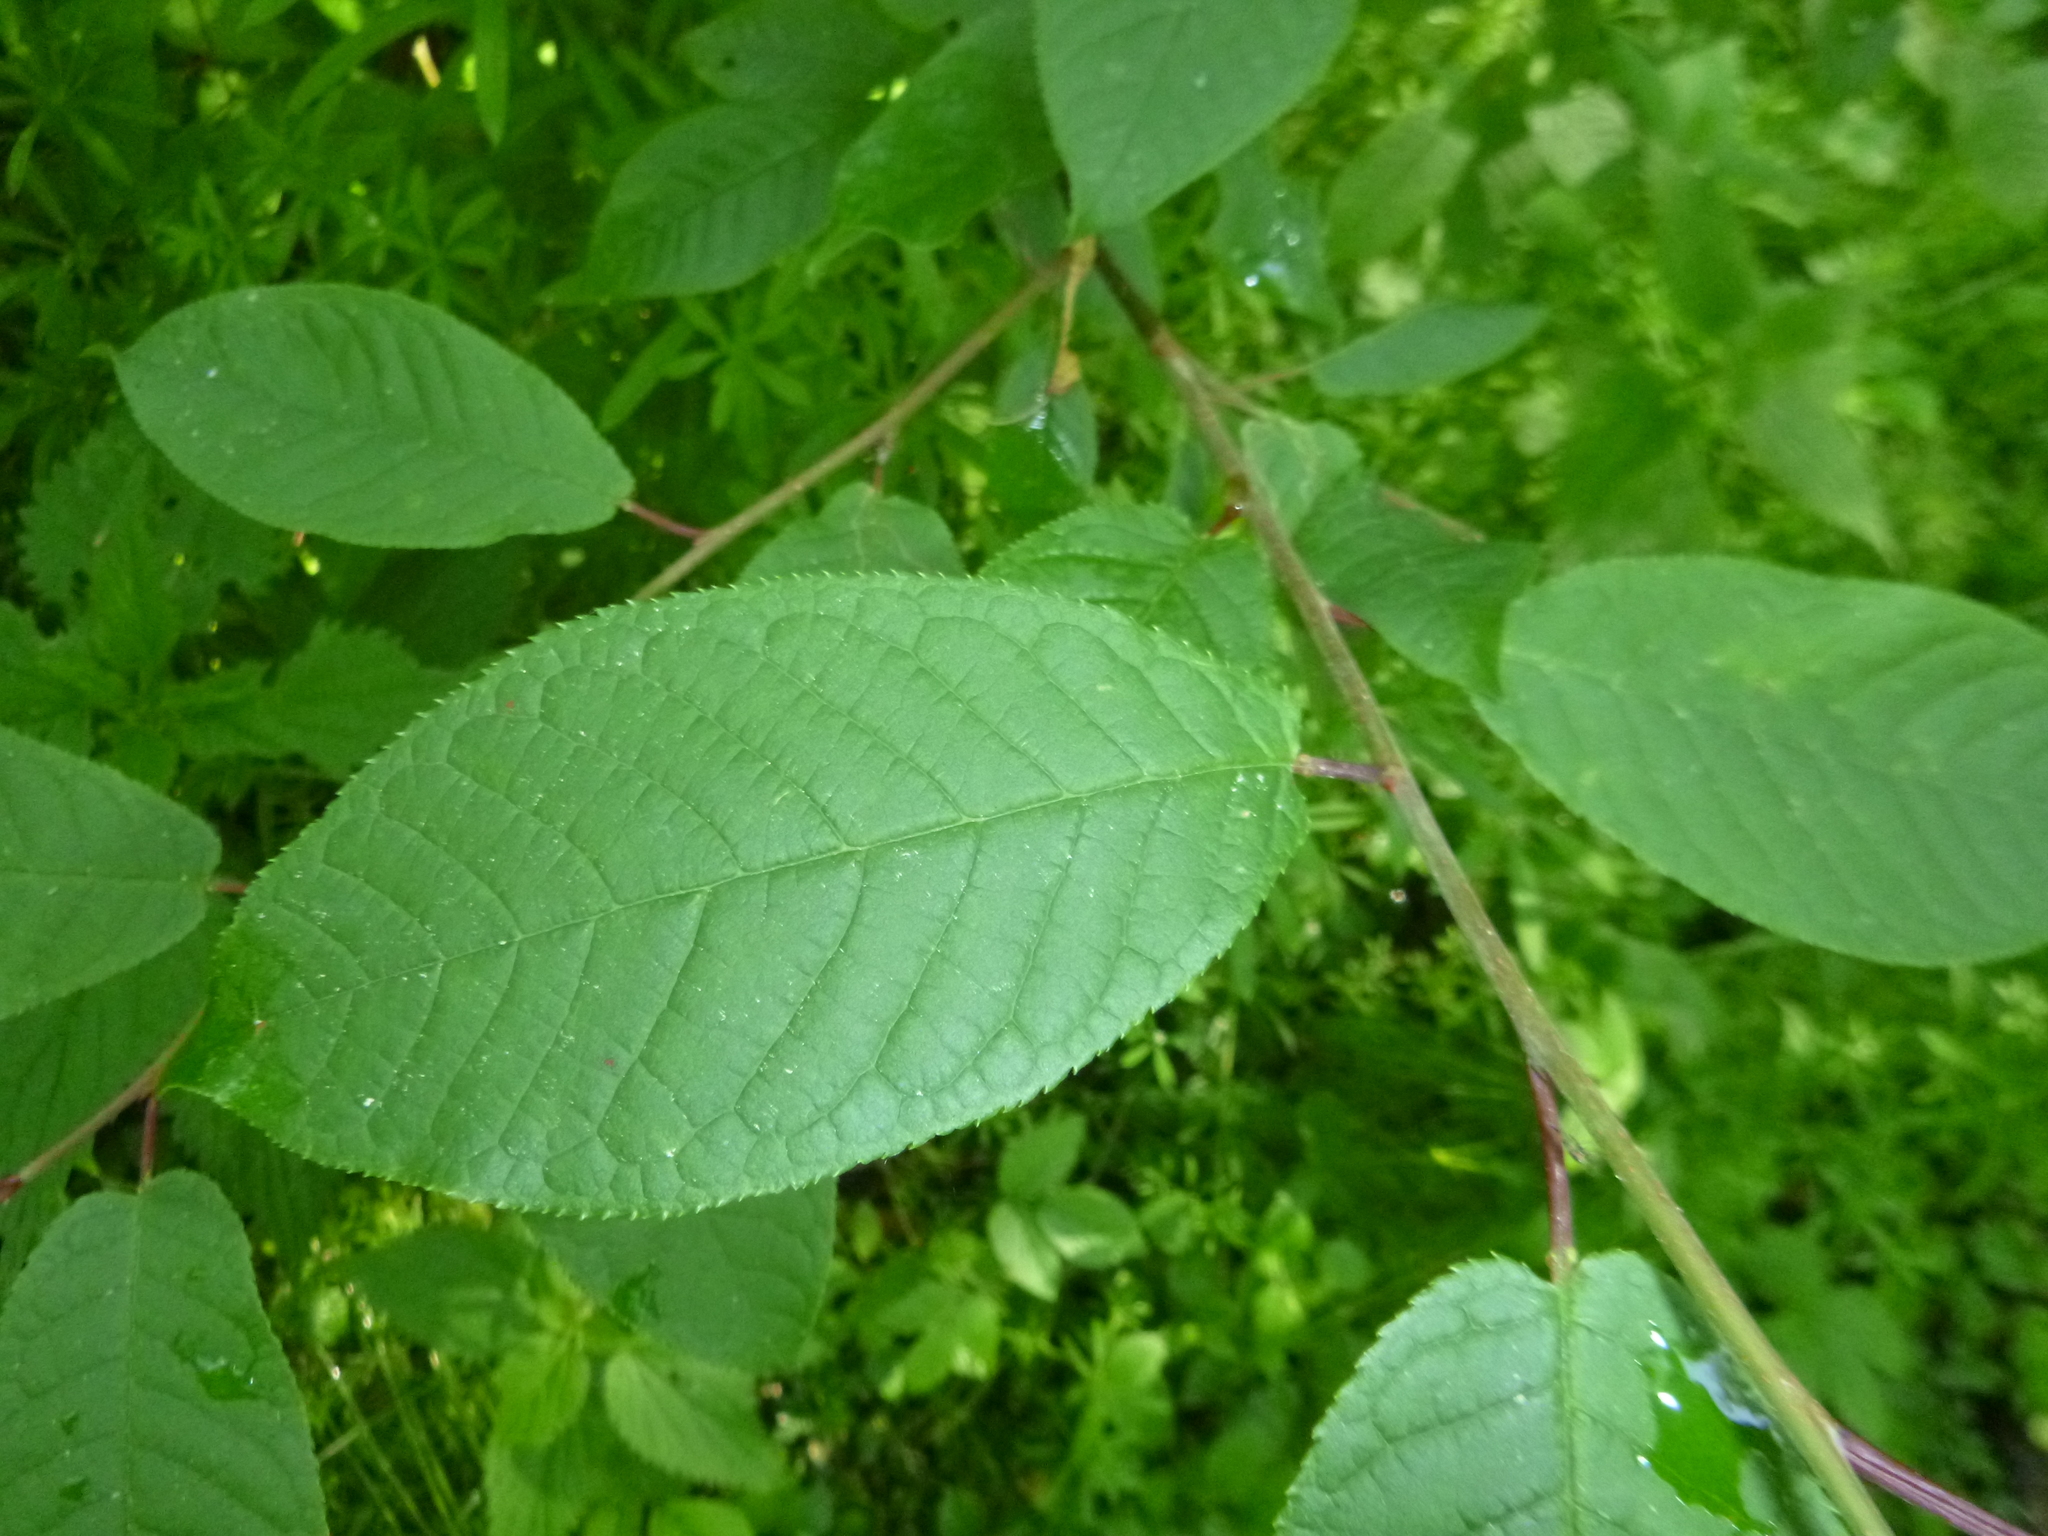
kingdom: Plantae
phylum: Tracheophyta
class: Magnoliopsida
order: Rosales
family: Rosaceae
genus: Prunus
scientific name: Prunus padus
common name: Bird cherry
